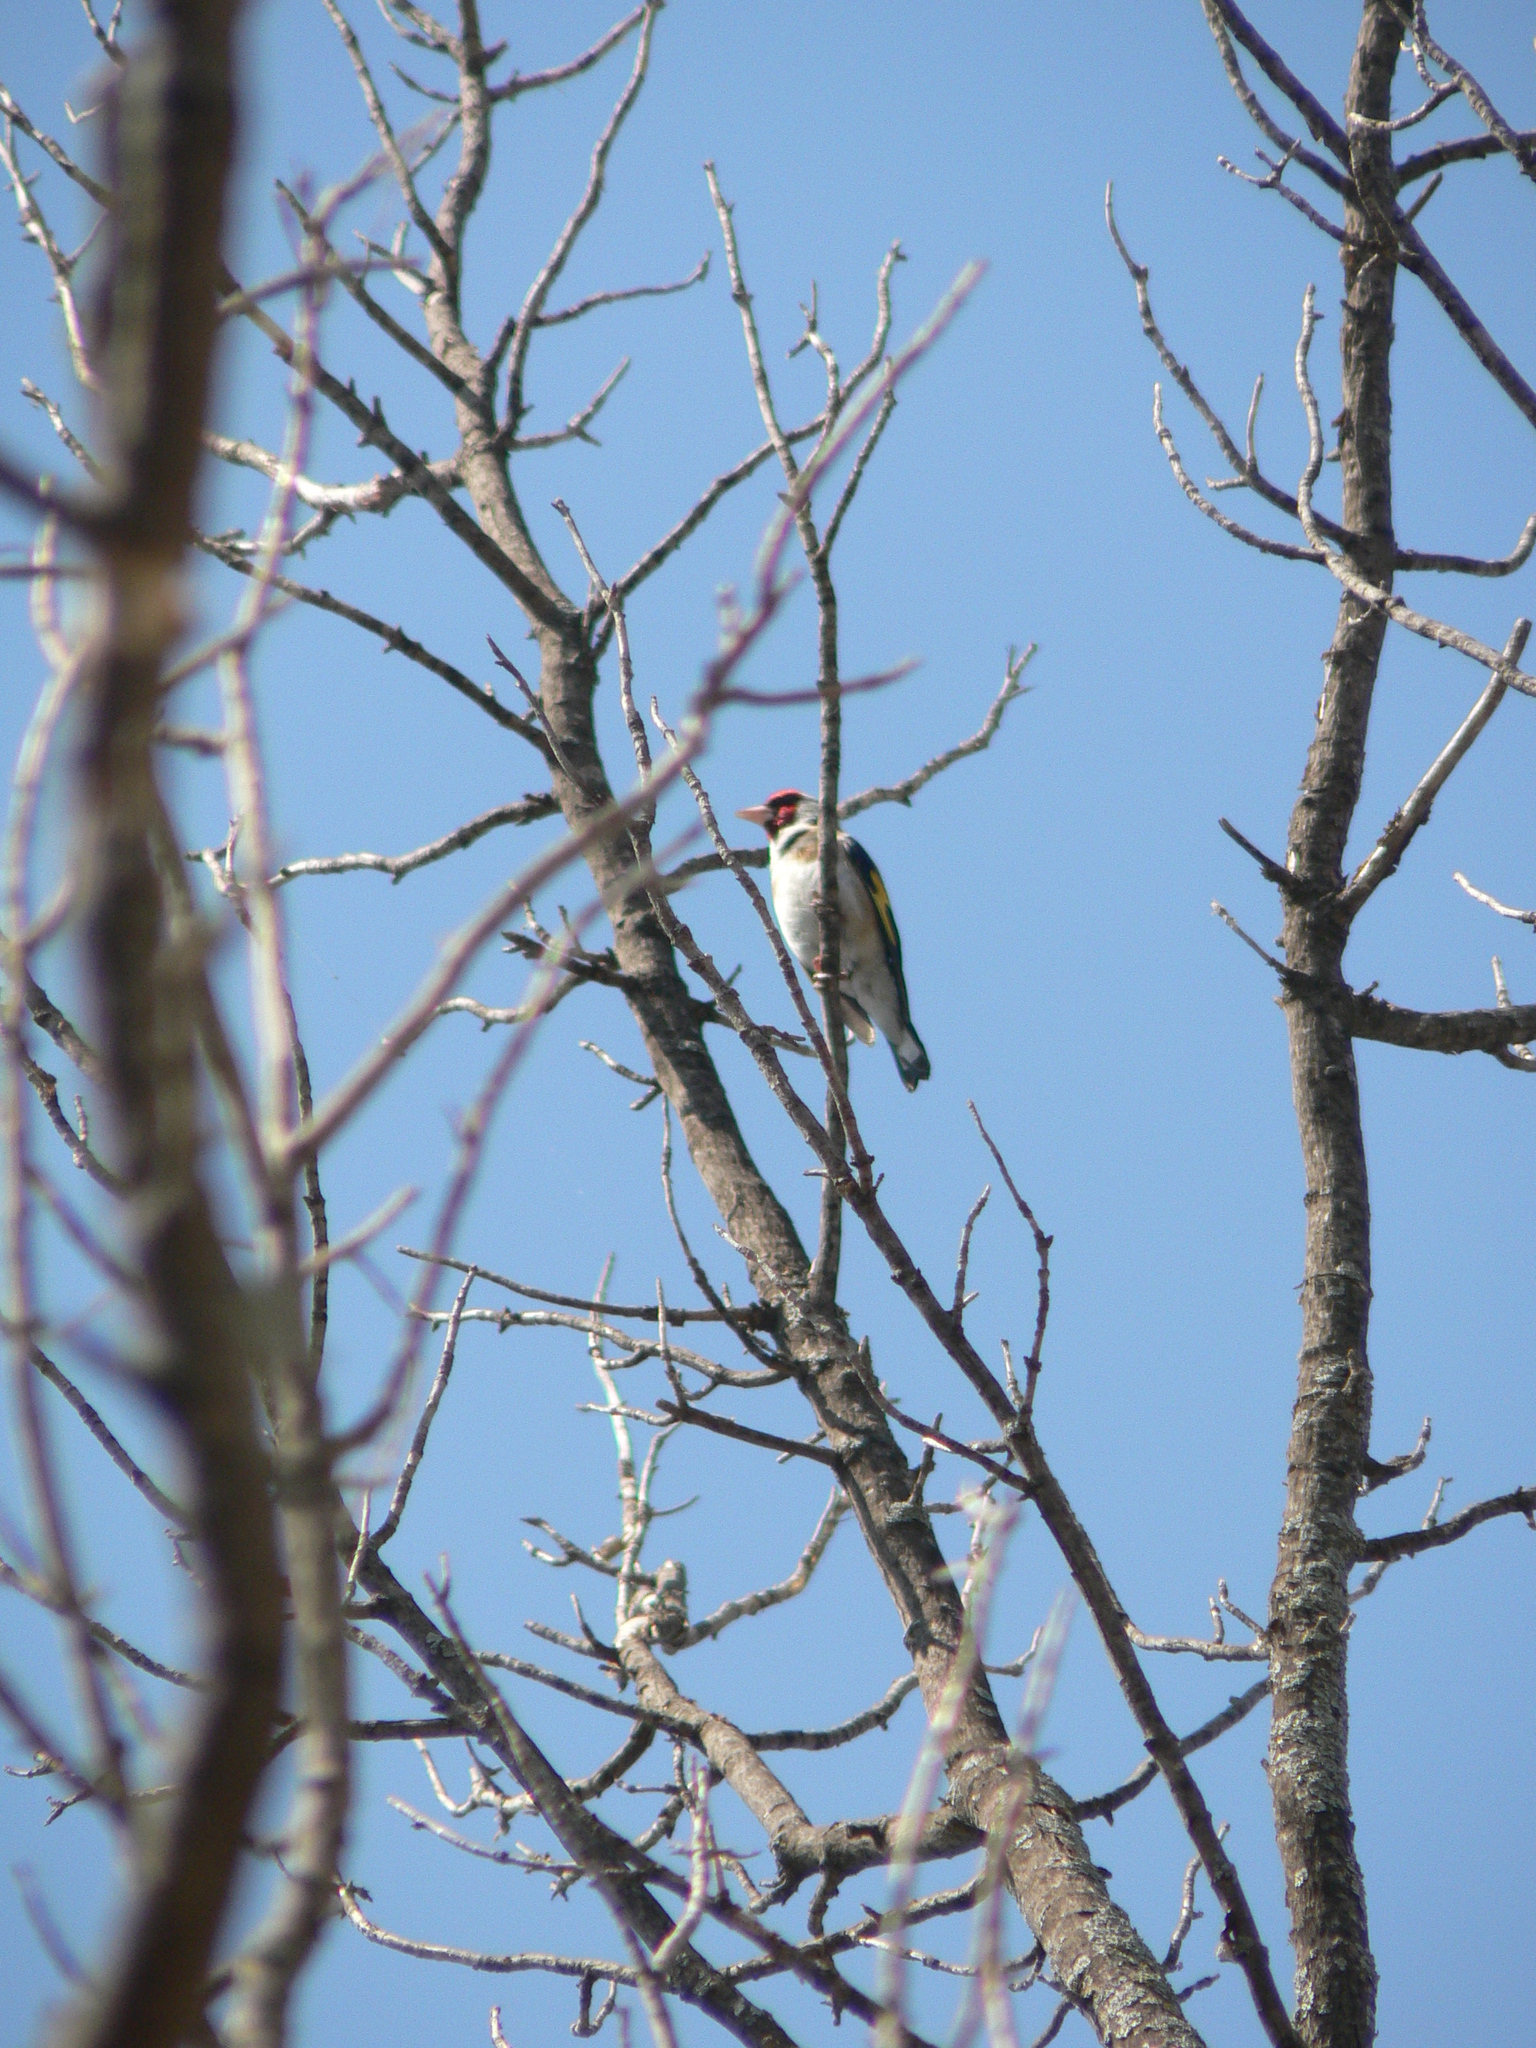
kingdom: Animalia
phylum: Chordata
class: Aves
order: Passeriformes
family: Fringillidae
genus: Carduelis
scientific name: Carduelis carduelis
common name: European goldfinch
